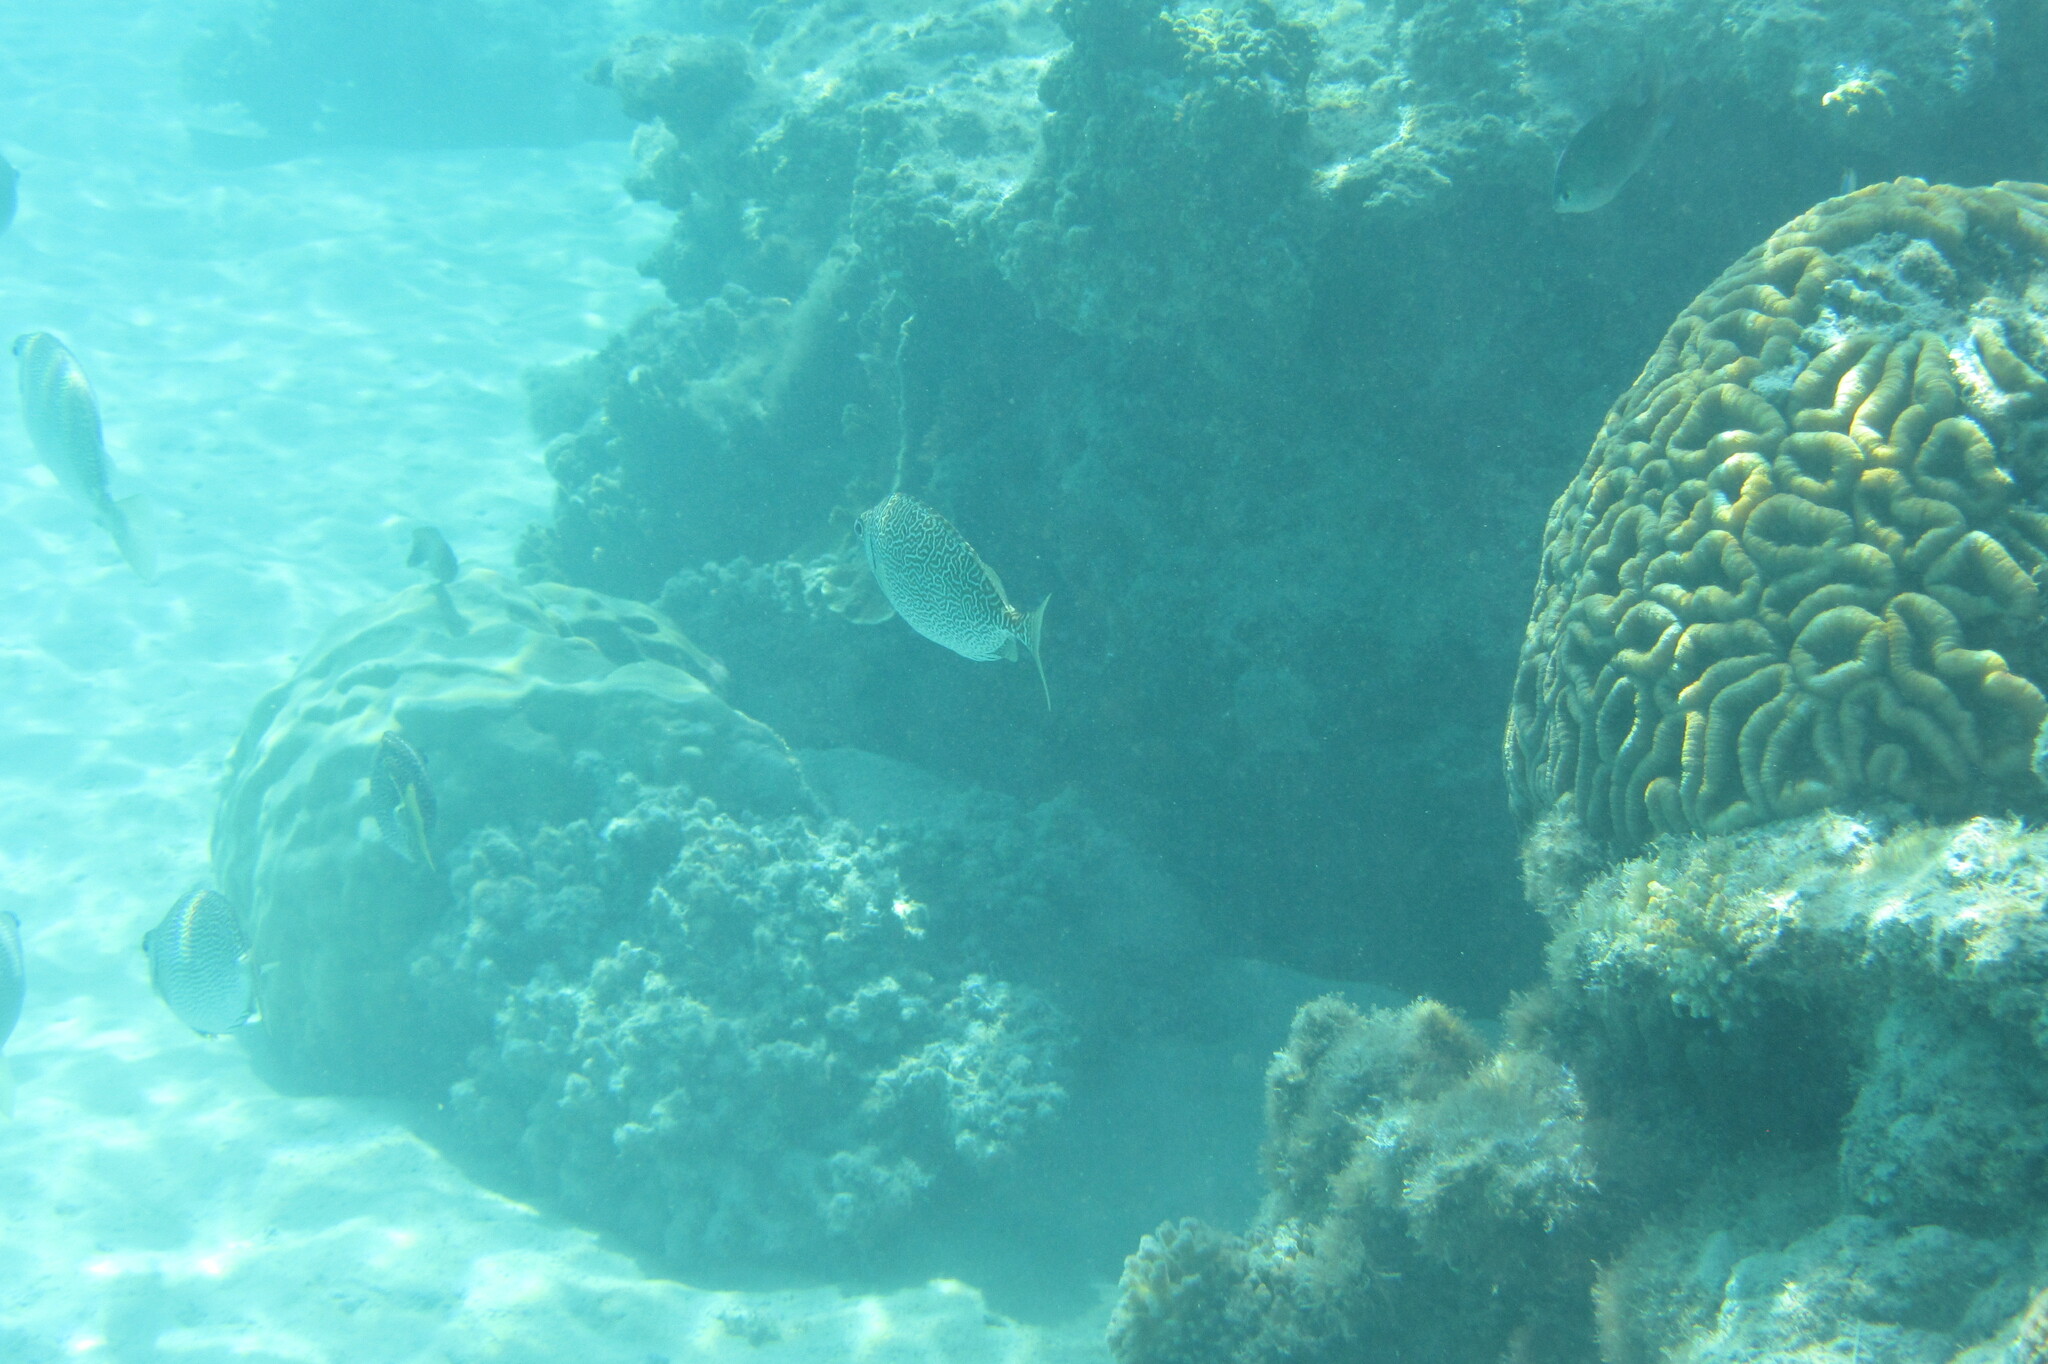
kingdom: Animalia
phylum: Chordata
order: Perciformes
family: Siganidae
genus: Siganus
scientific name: Siganus spinus
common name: Scribbled rabbitfish
